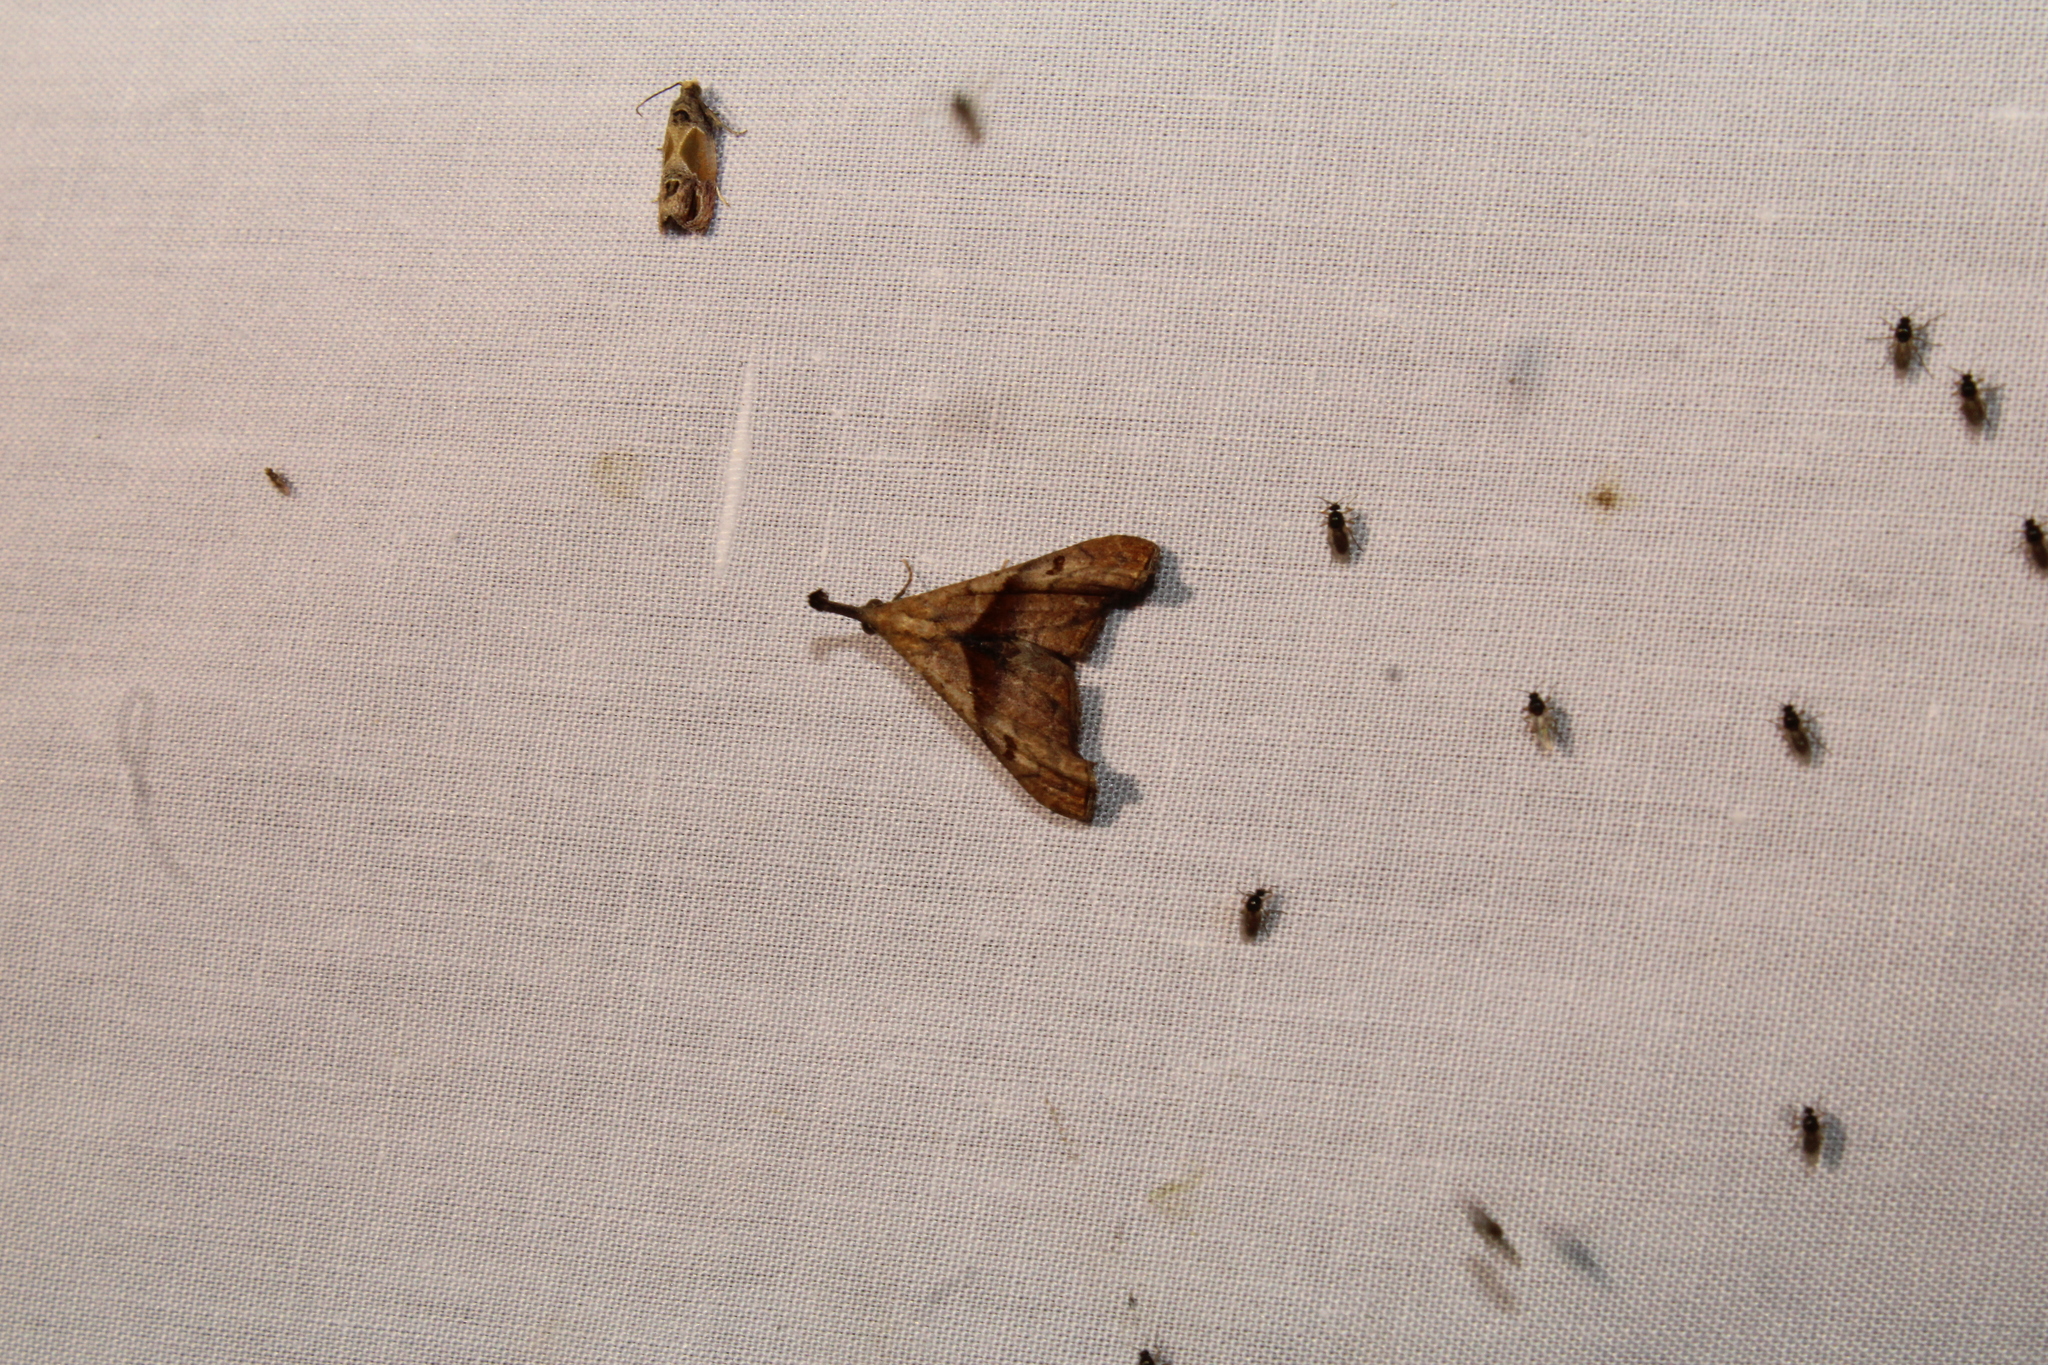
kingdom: Animalia
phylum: Arthropoda
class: Insecta
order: Lepidoptera
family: Erebidae
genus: Palthis
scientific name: Palthis angulalis
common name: Dark-spotted palthis moth
